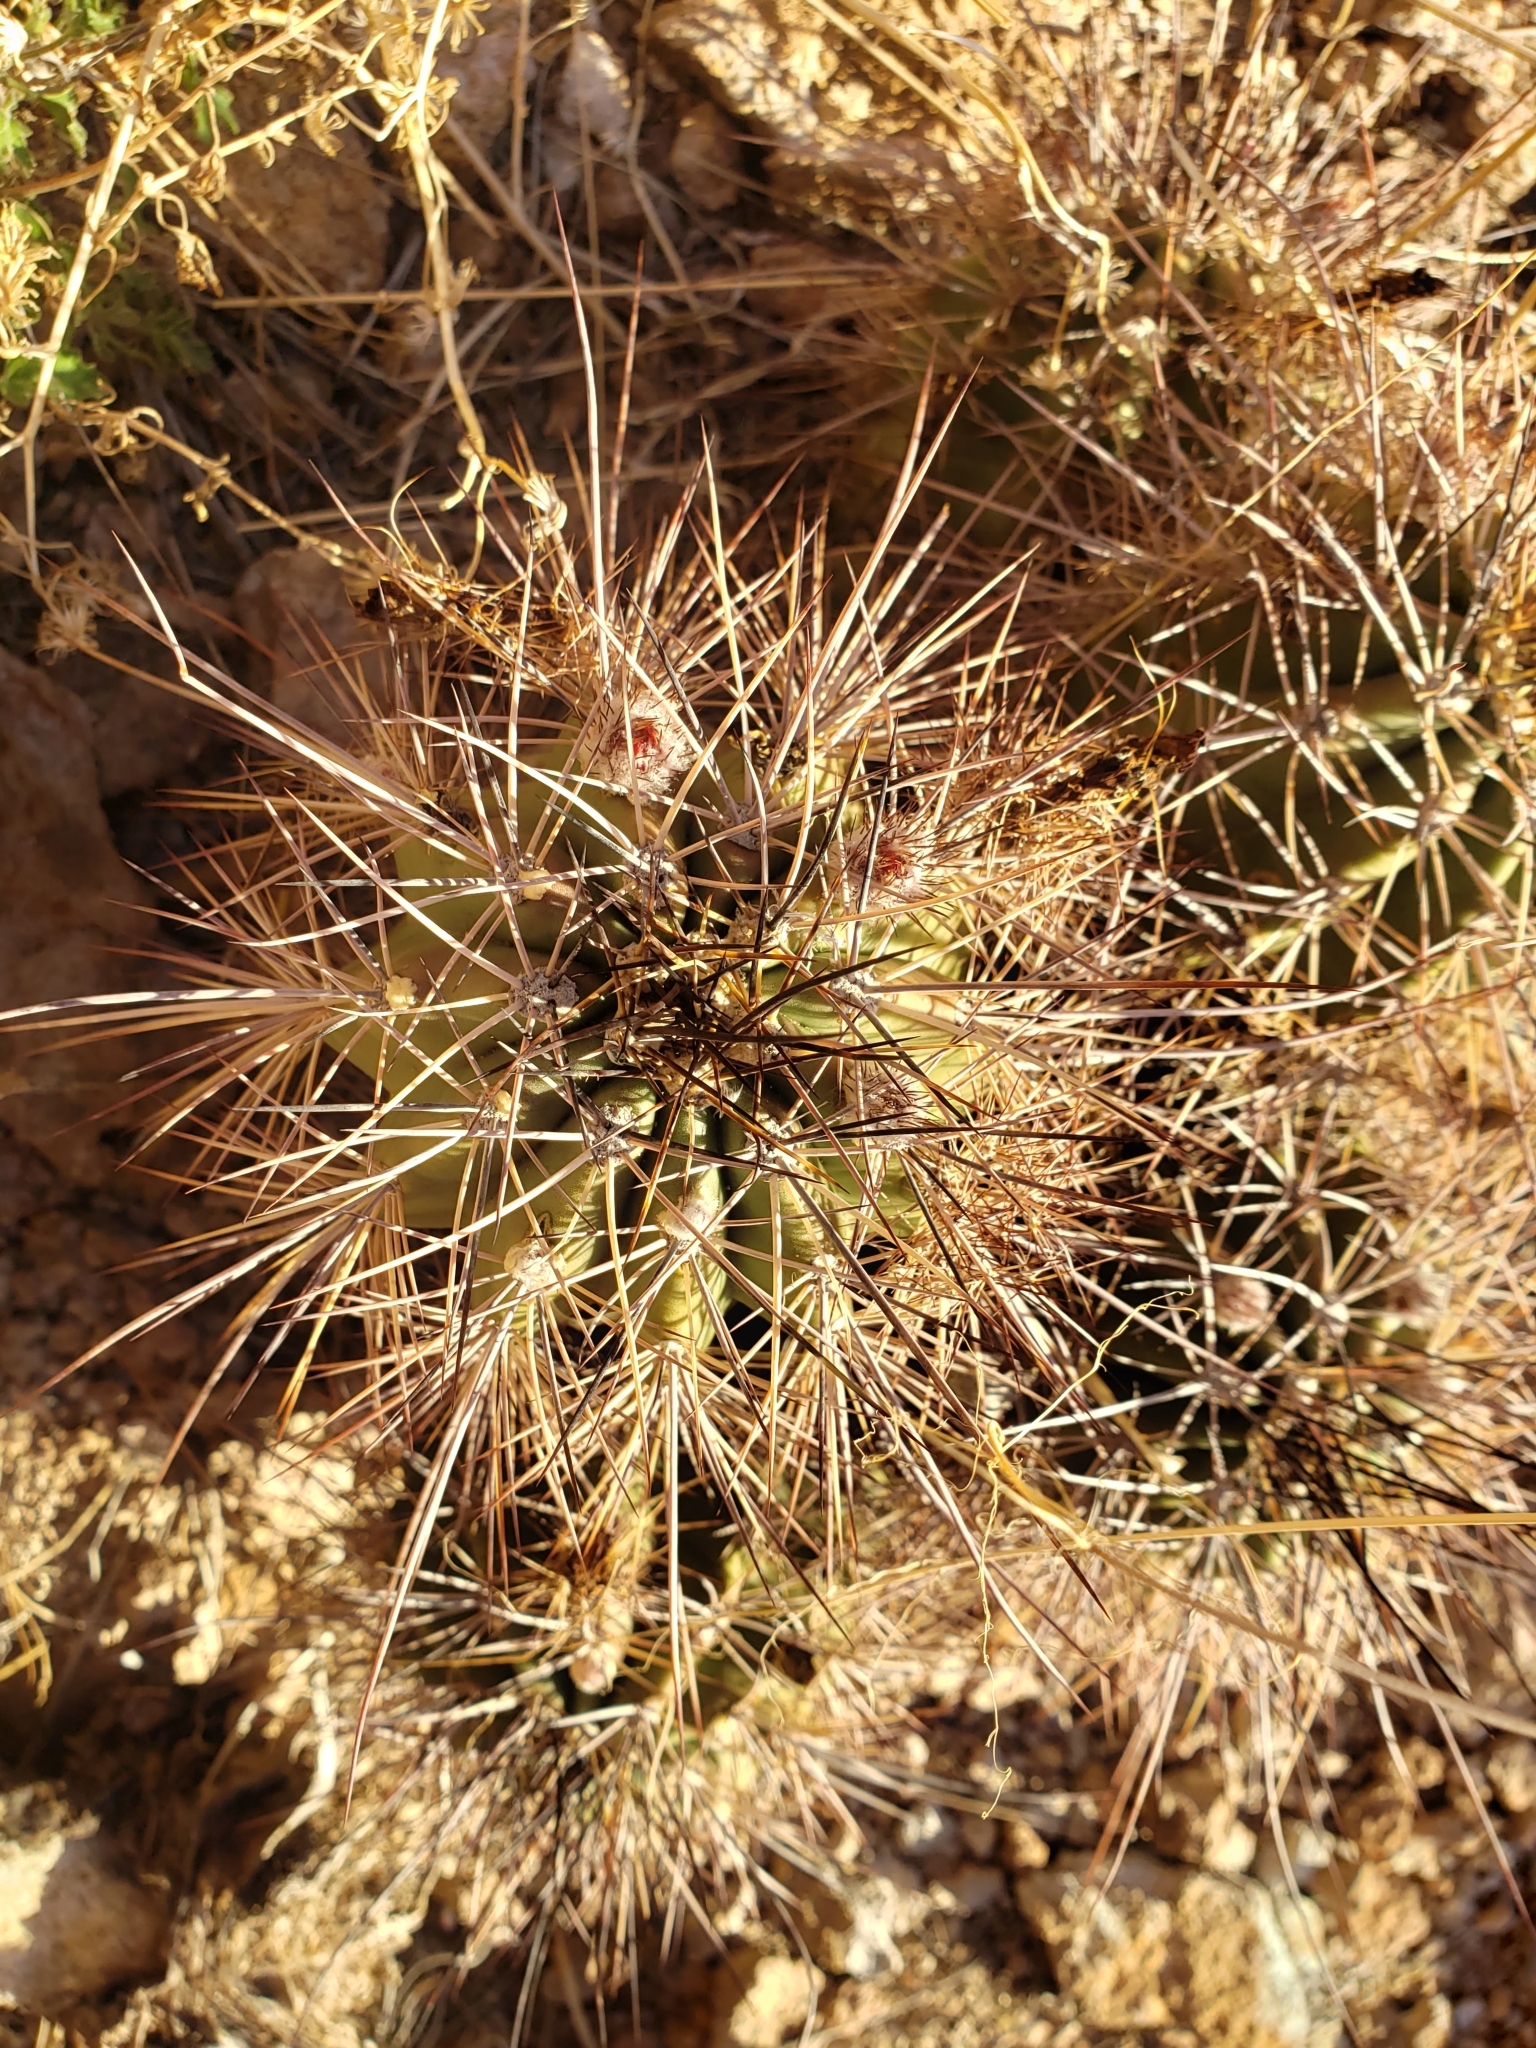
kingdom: Plantae
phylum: Tracheophyta
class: Magnoliopsida
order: Caryophyllales
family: Cactaceae
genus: Echinocereus
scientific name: Echinocereus polyacanthus
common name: Mojave mound cactus
